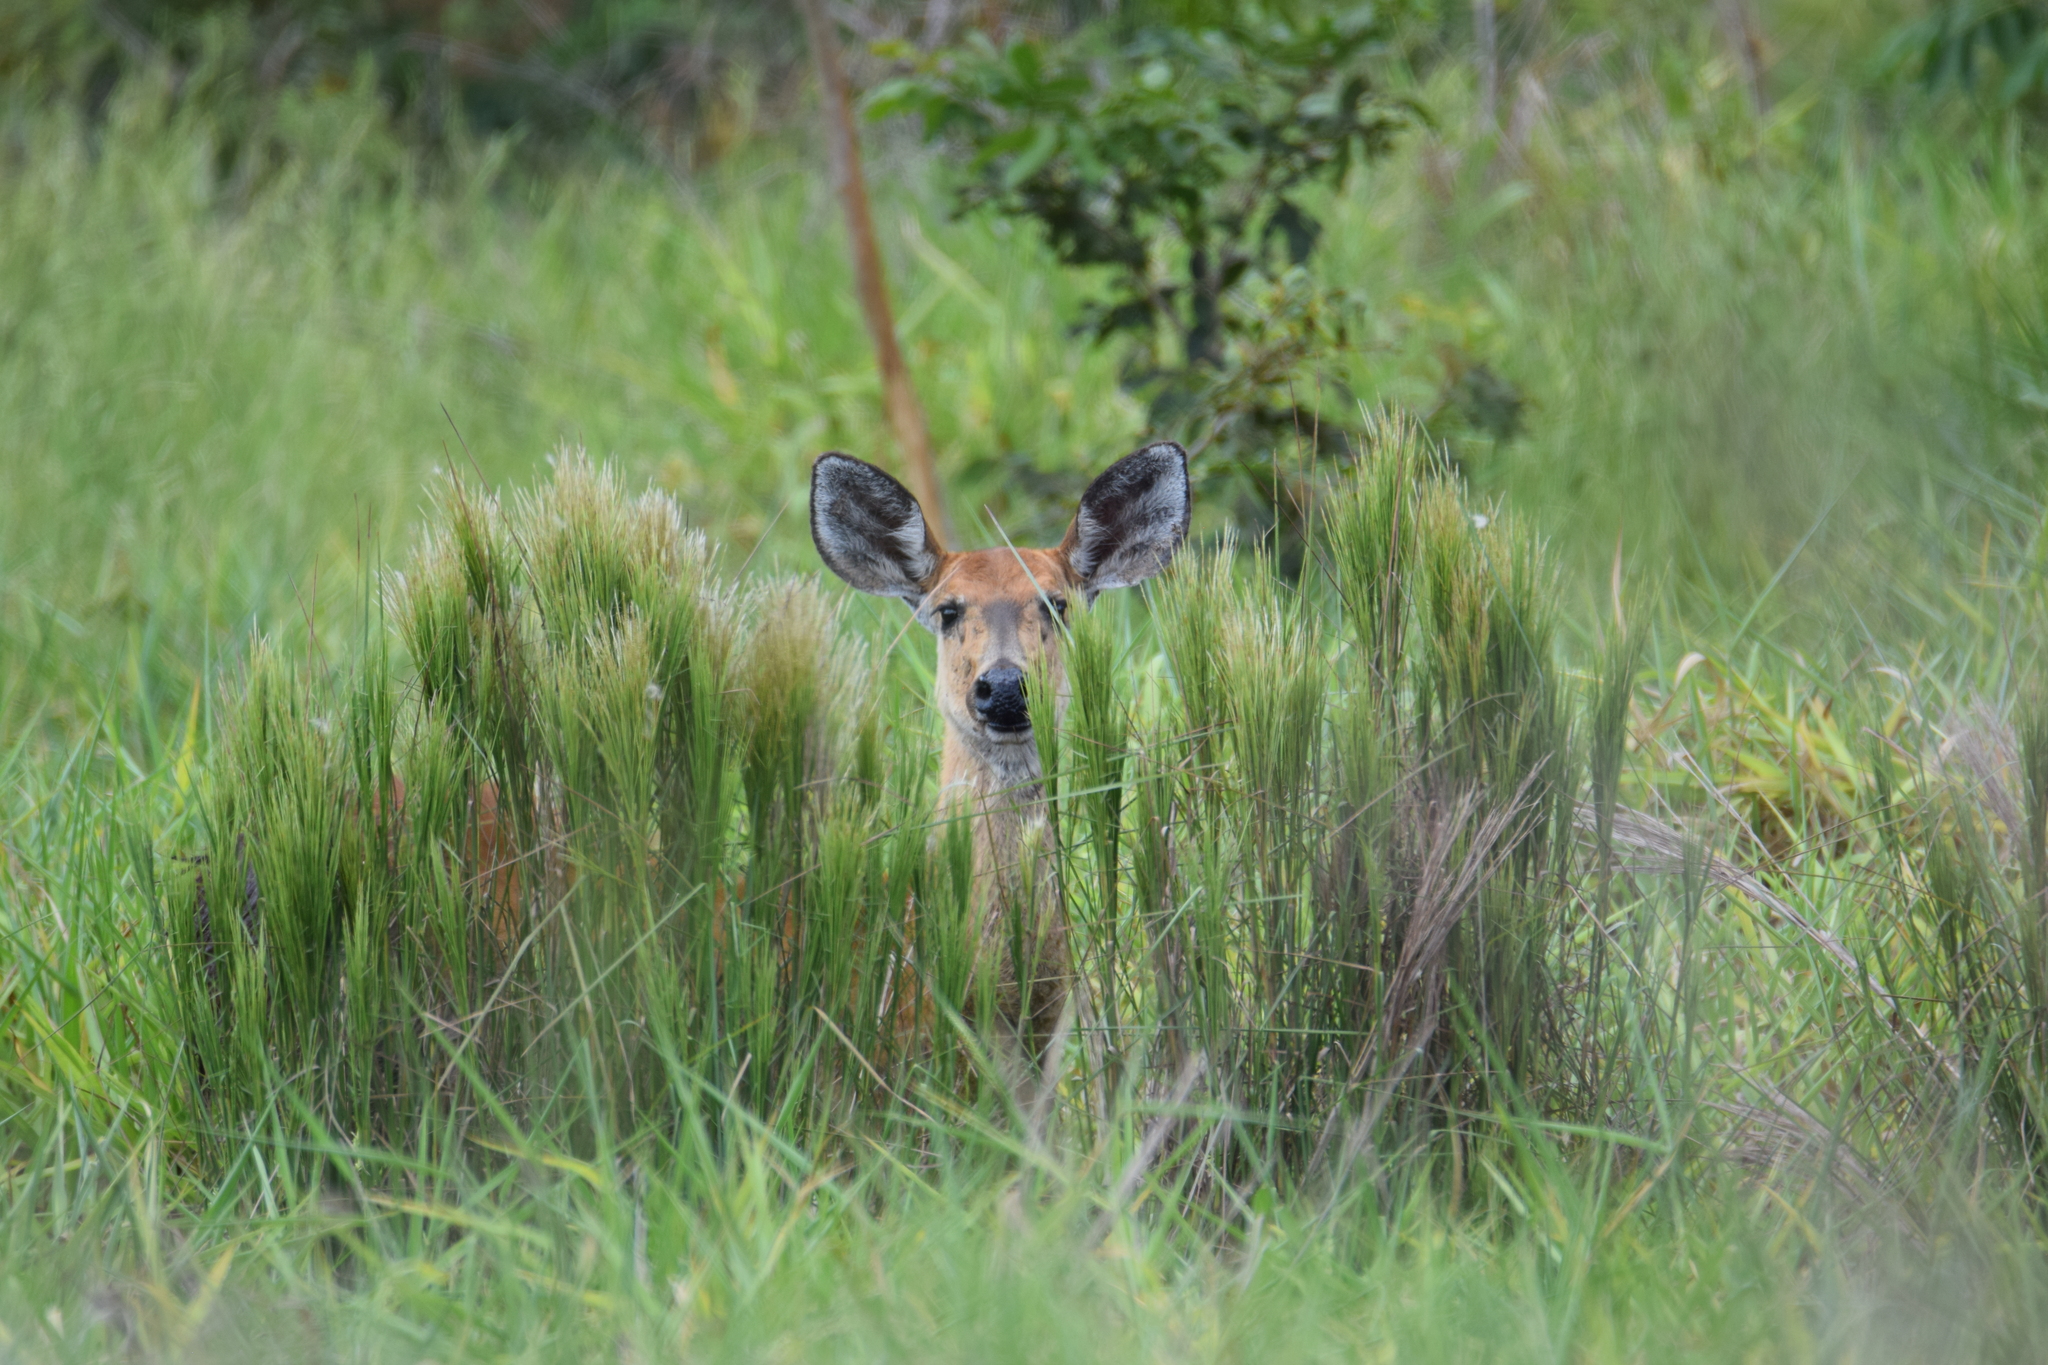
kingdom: Animalia
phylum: Chordata
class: Mammalia
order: Artiodactyla
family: Cervidae
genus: Blastocerus
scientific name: Blastocerus dichotomus
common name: Marsh deer
